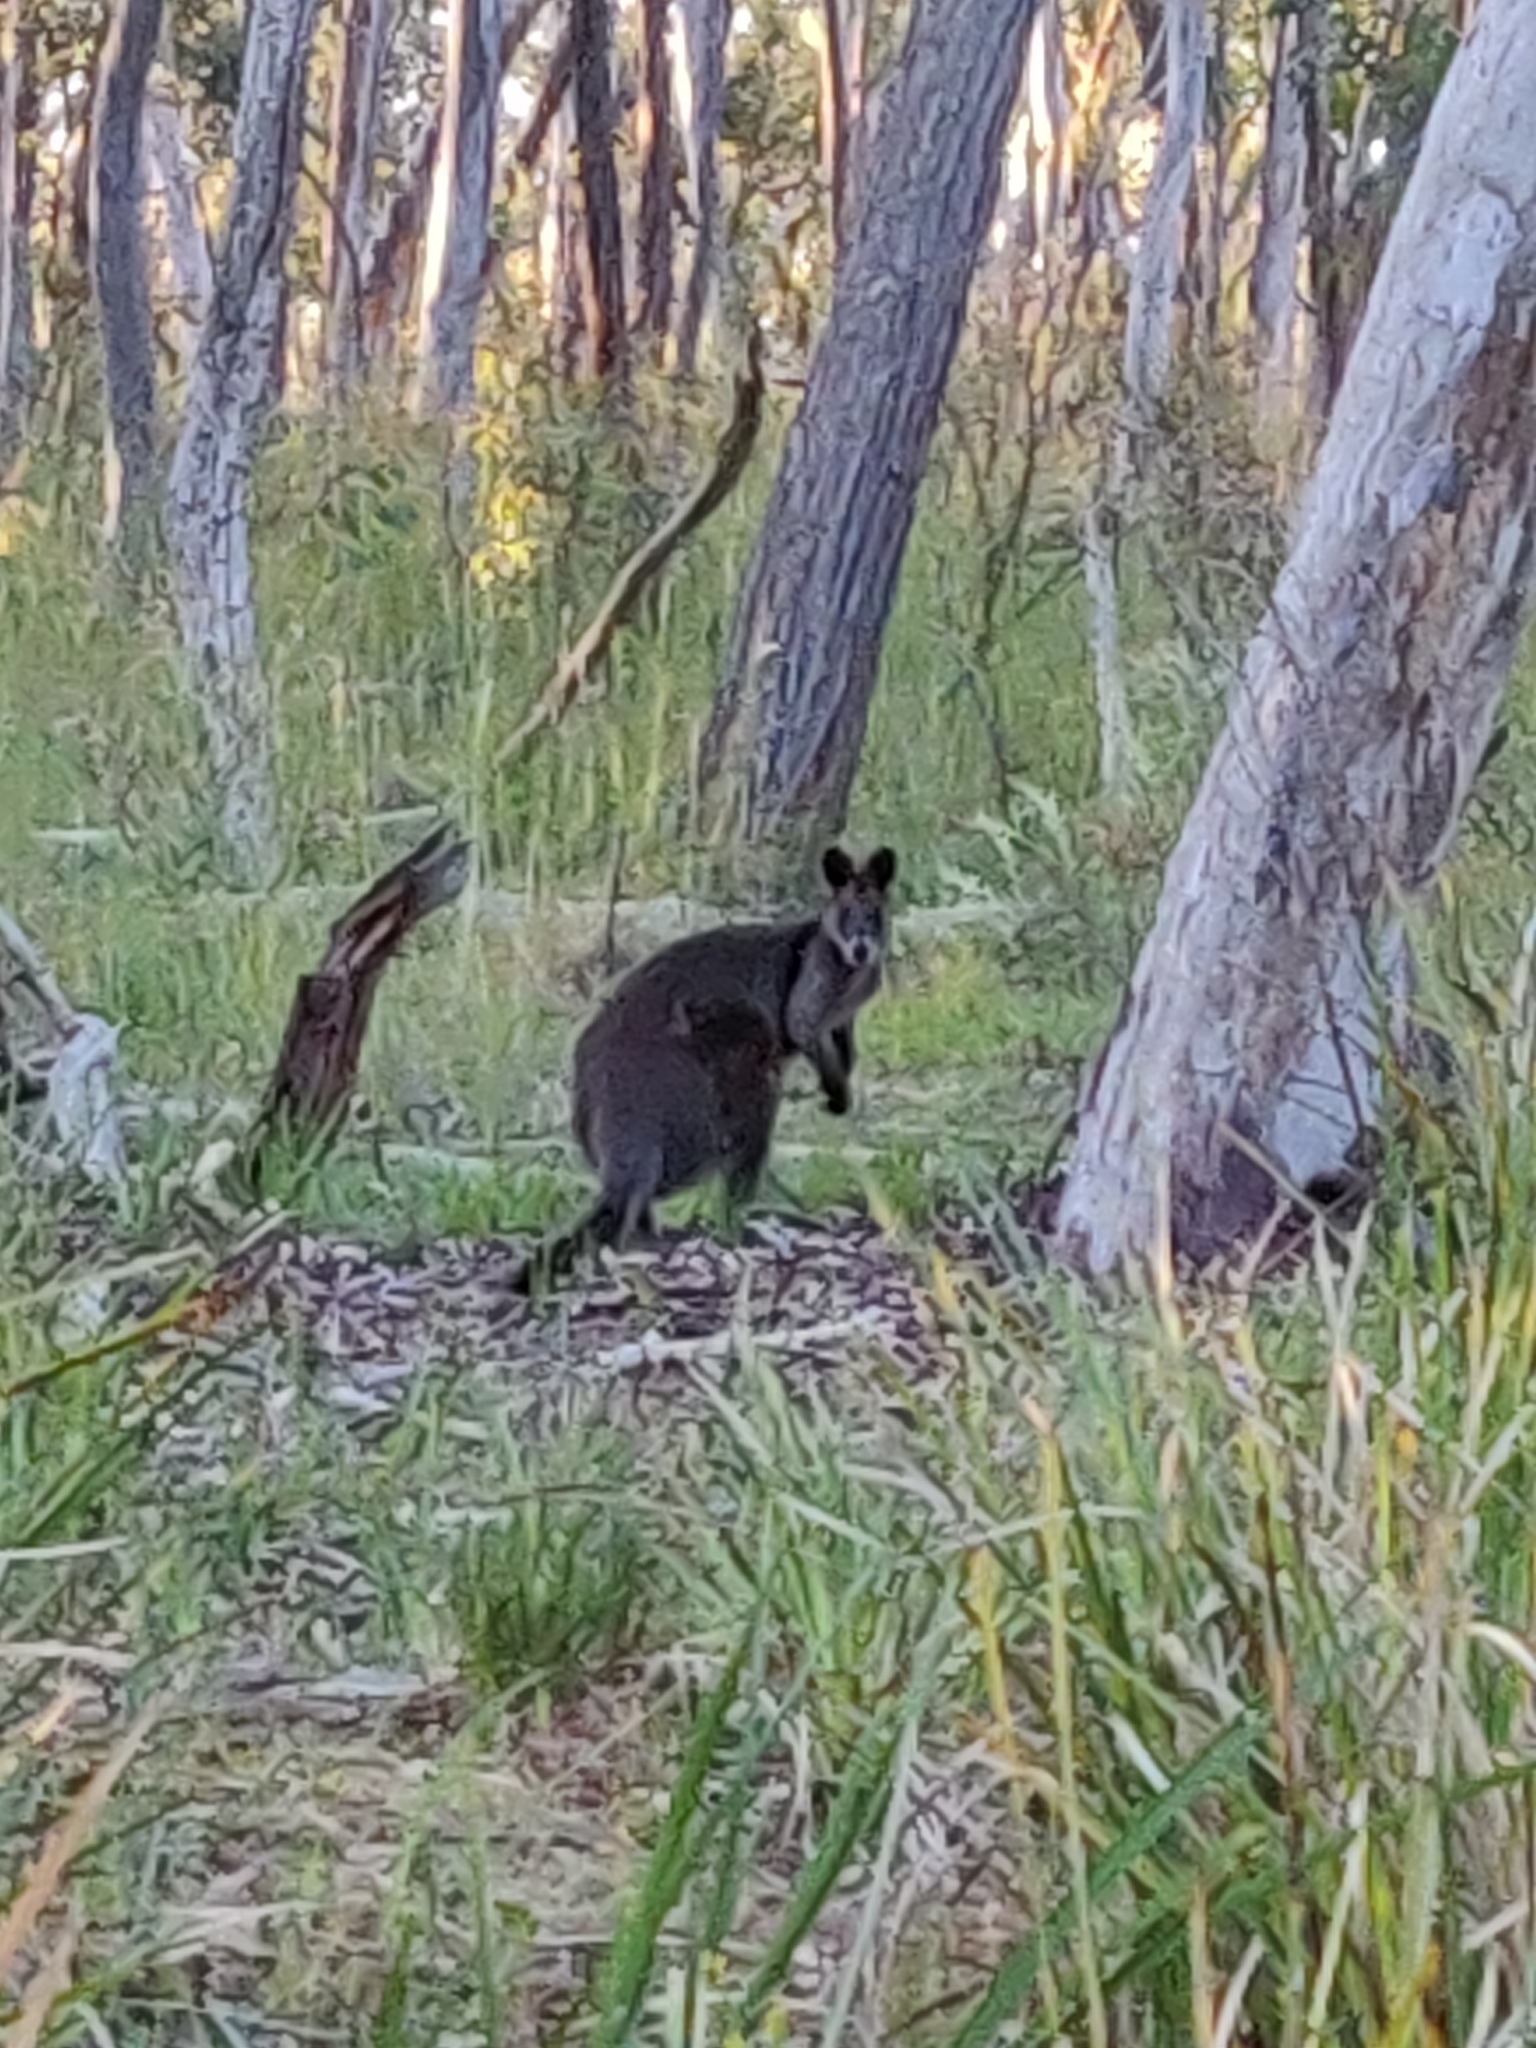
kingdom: Animalia
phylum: Chordata
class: Mammalia
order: Diprotodontia
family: Macropodidae
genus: Wallabia
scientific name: Wallabia bicolor
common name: Swamp wallaby
